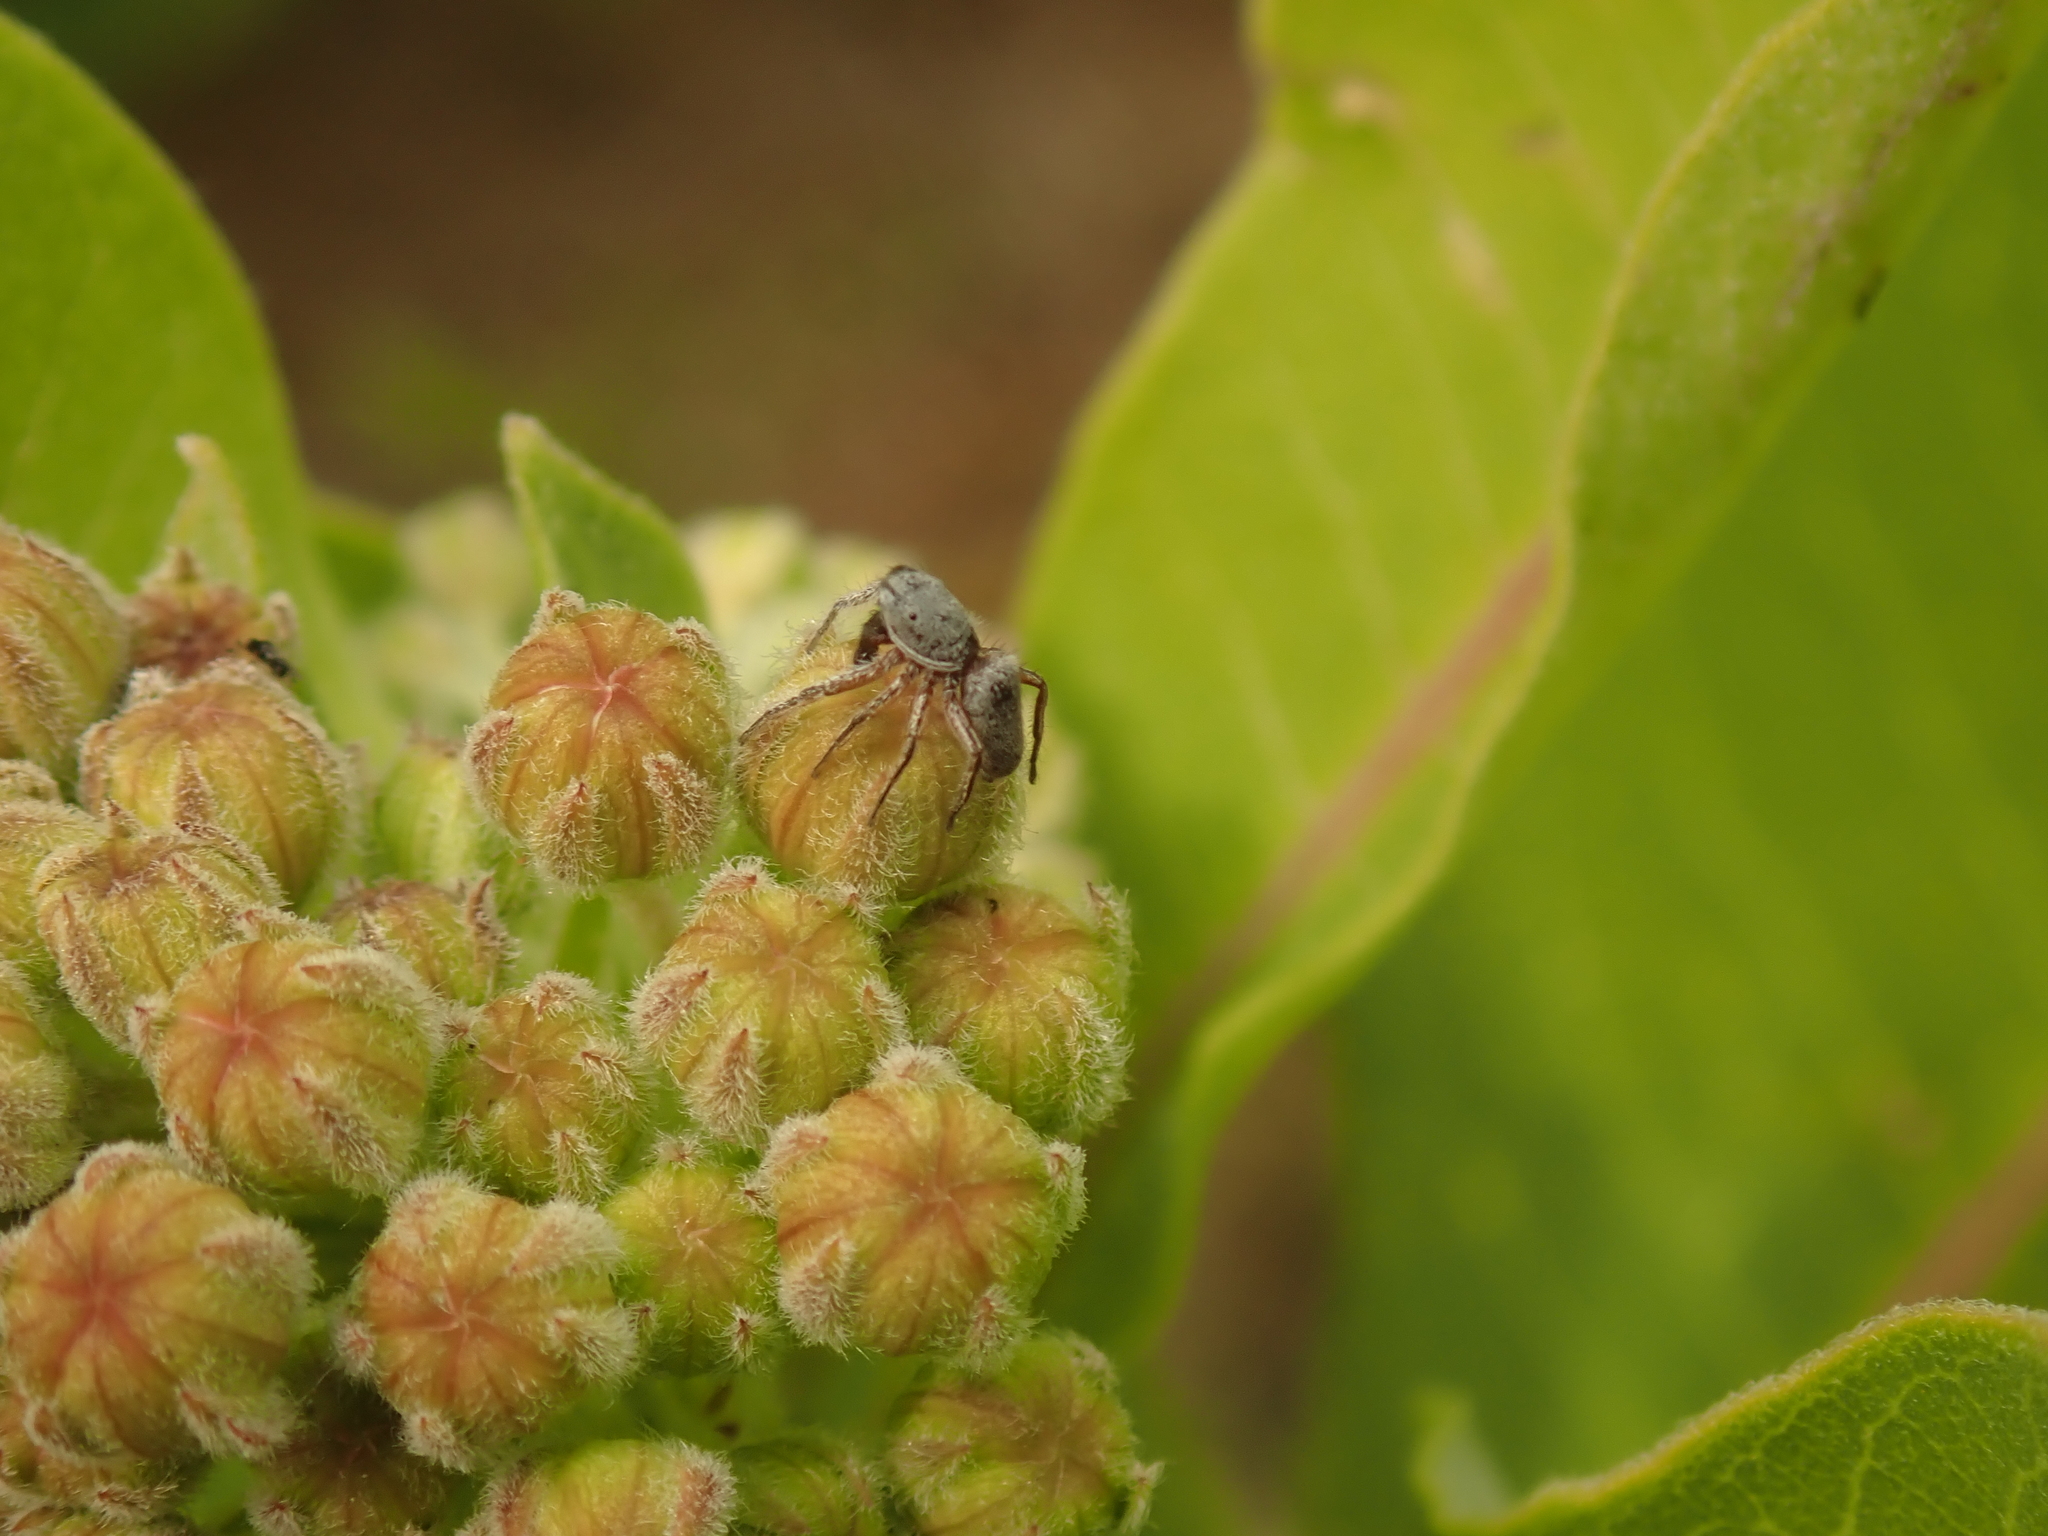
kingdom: Animalia
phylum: Arthropoda
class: Arachnida
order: Araneae
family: Salticidae
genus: Tutelina
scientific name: Tutelina similis
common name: Thick-spined jumping spider
